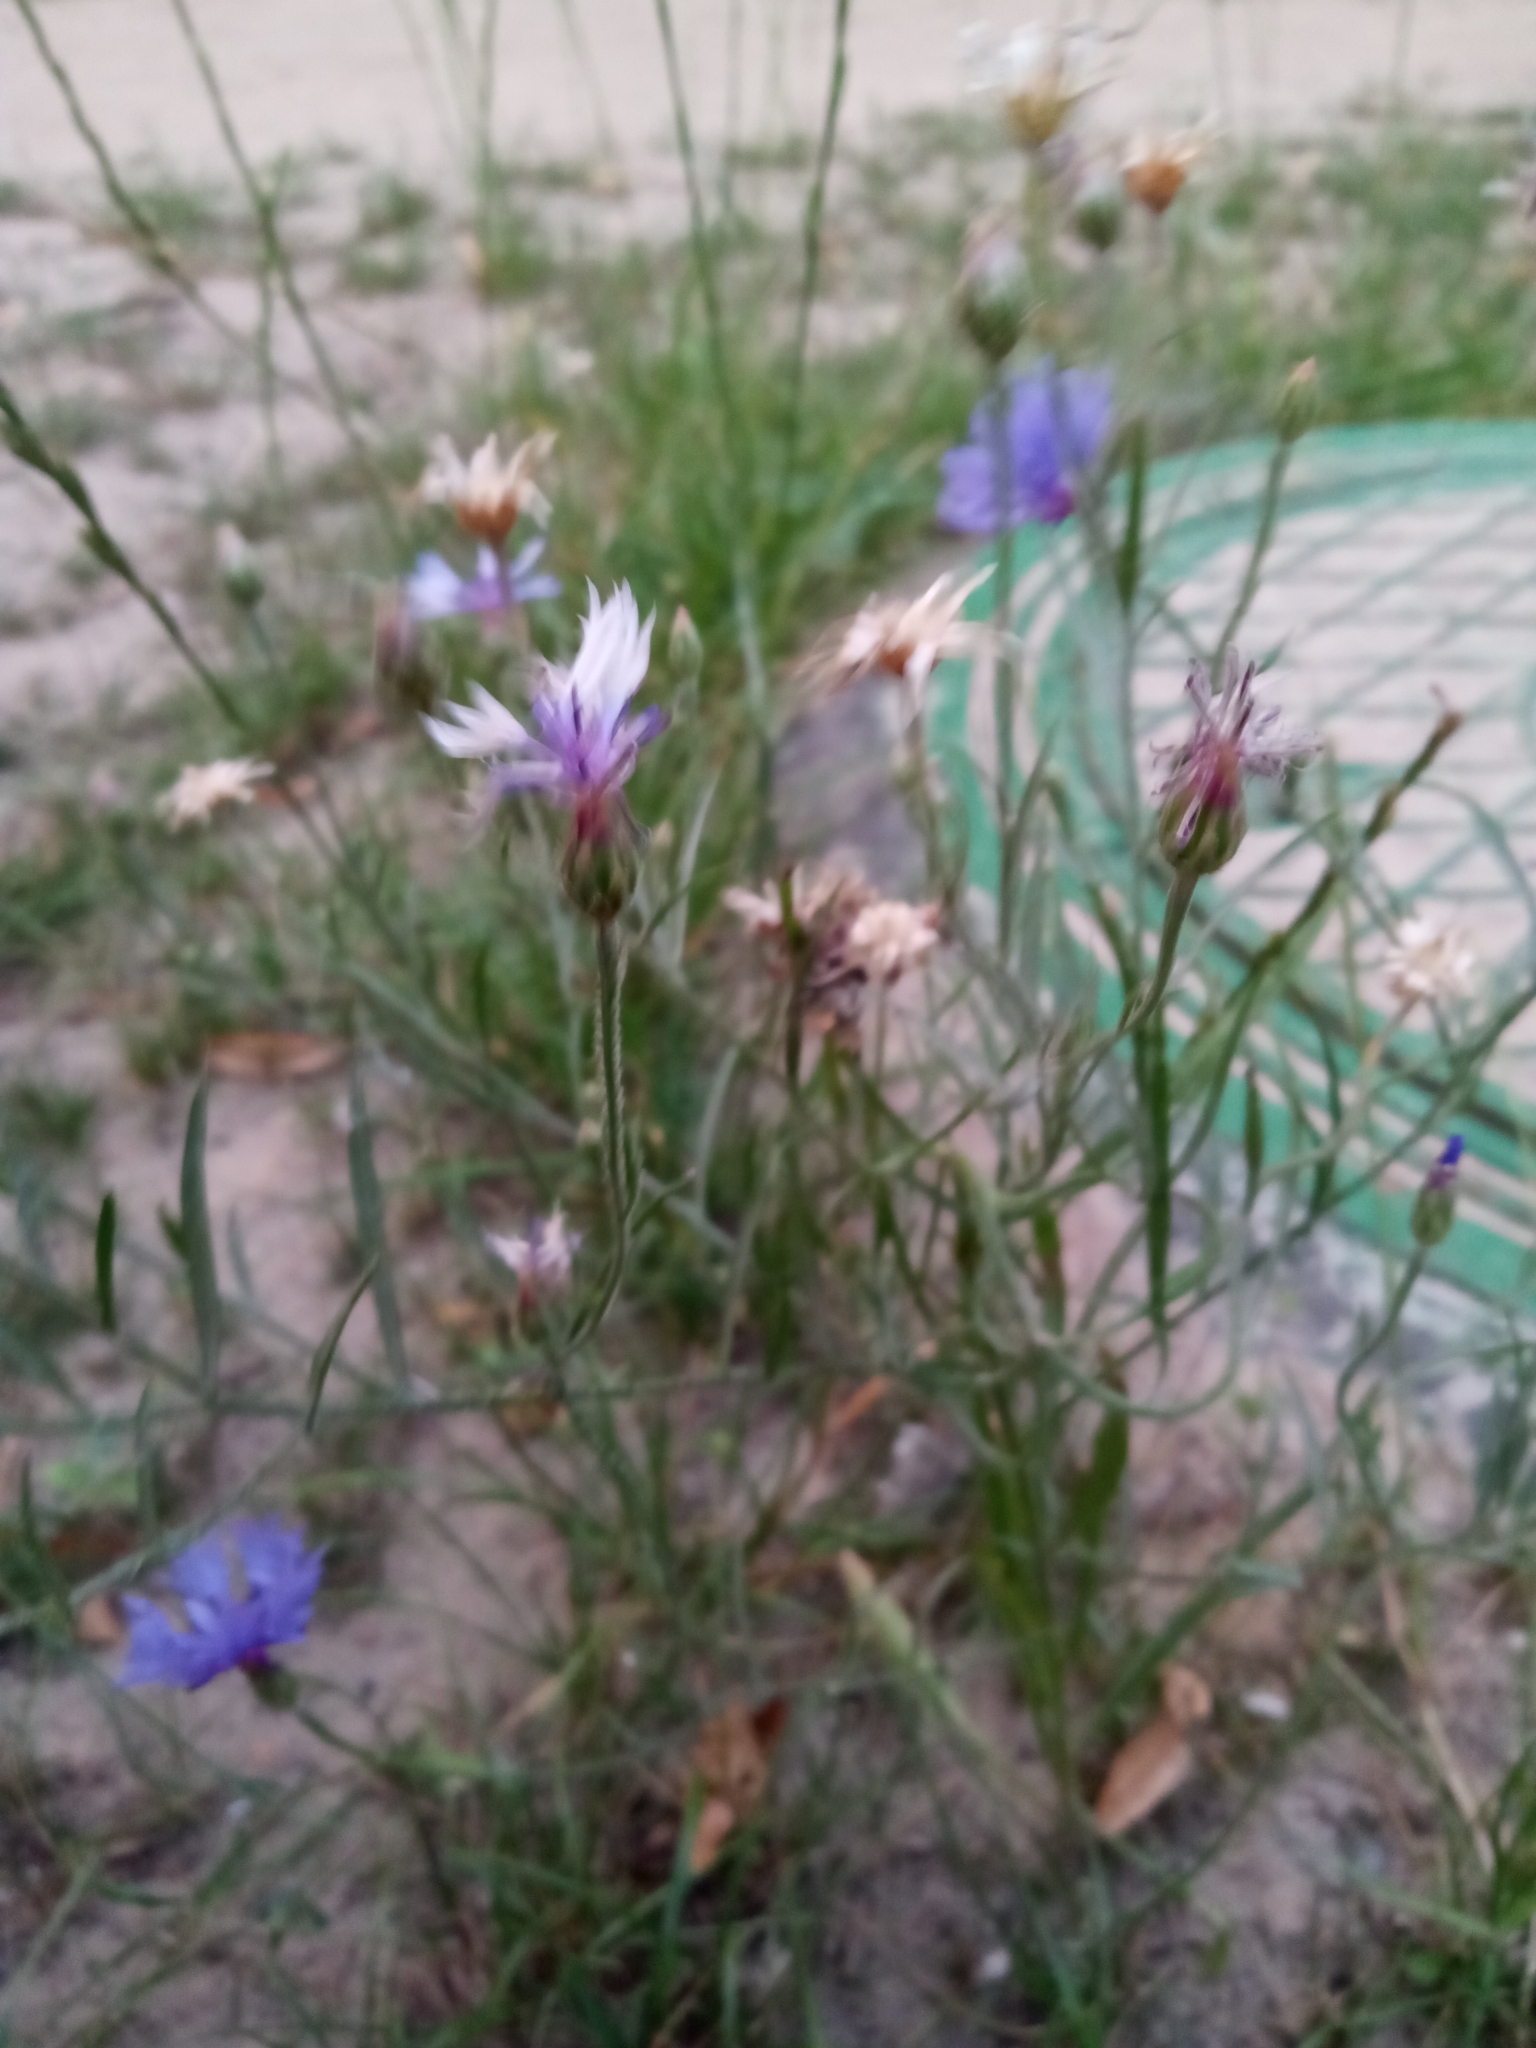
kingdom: Plantae
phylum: Tracheophyta
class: Magnoliopsida
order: Asterales
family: Asteraceae
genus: Centaurea
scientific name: Centaurea cyanus
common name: Cornflower
